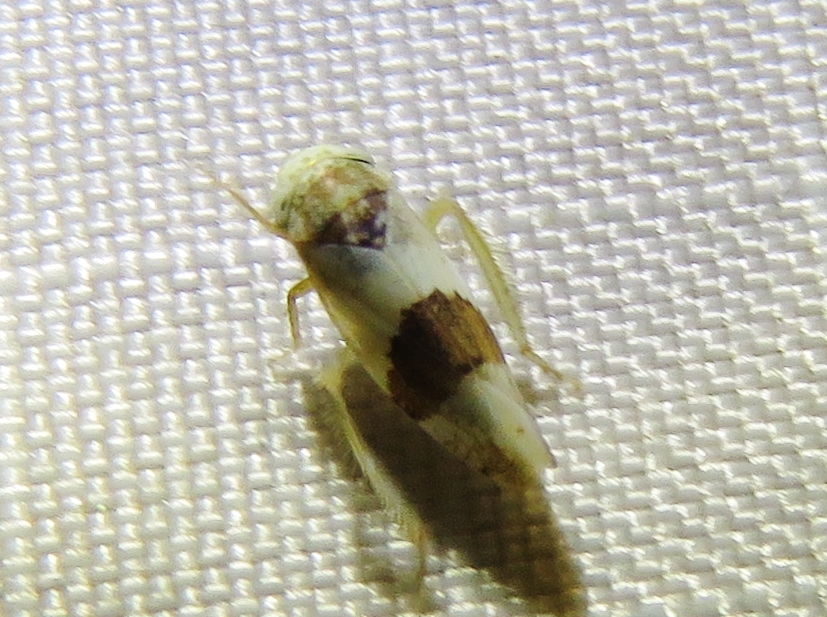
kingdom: Animalia
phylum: Arthropoda
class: Insecta
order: Hemiptera
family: Cicadellidae
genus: Norvellina
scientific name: Norvellina seminuda
